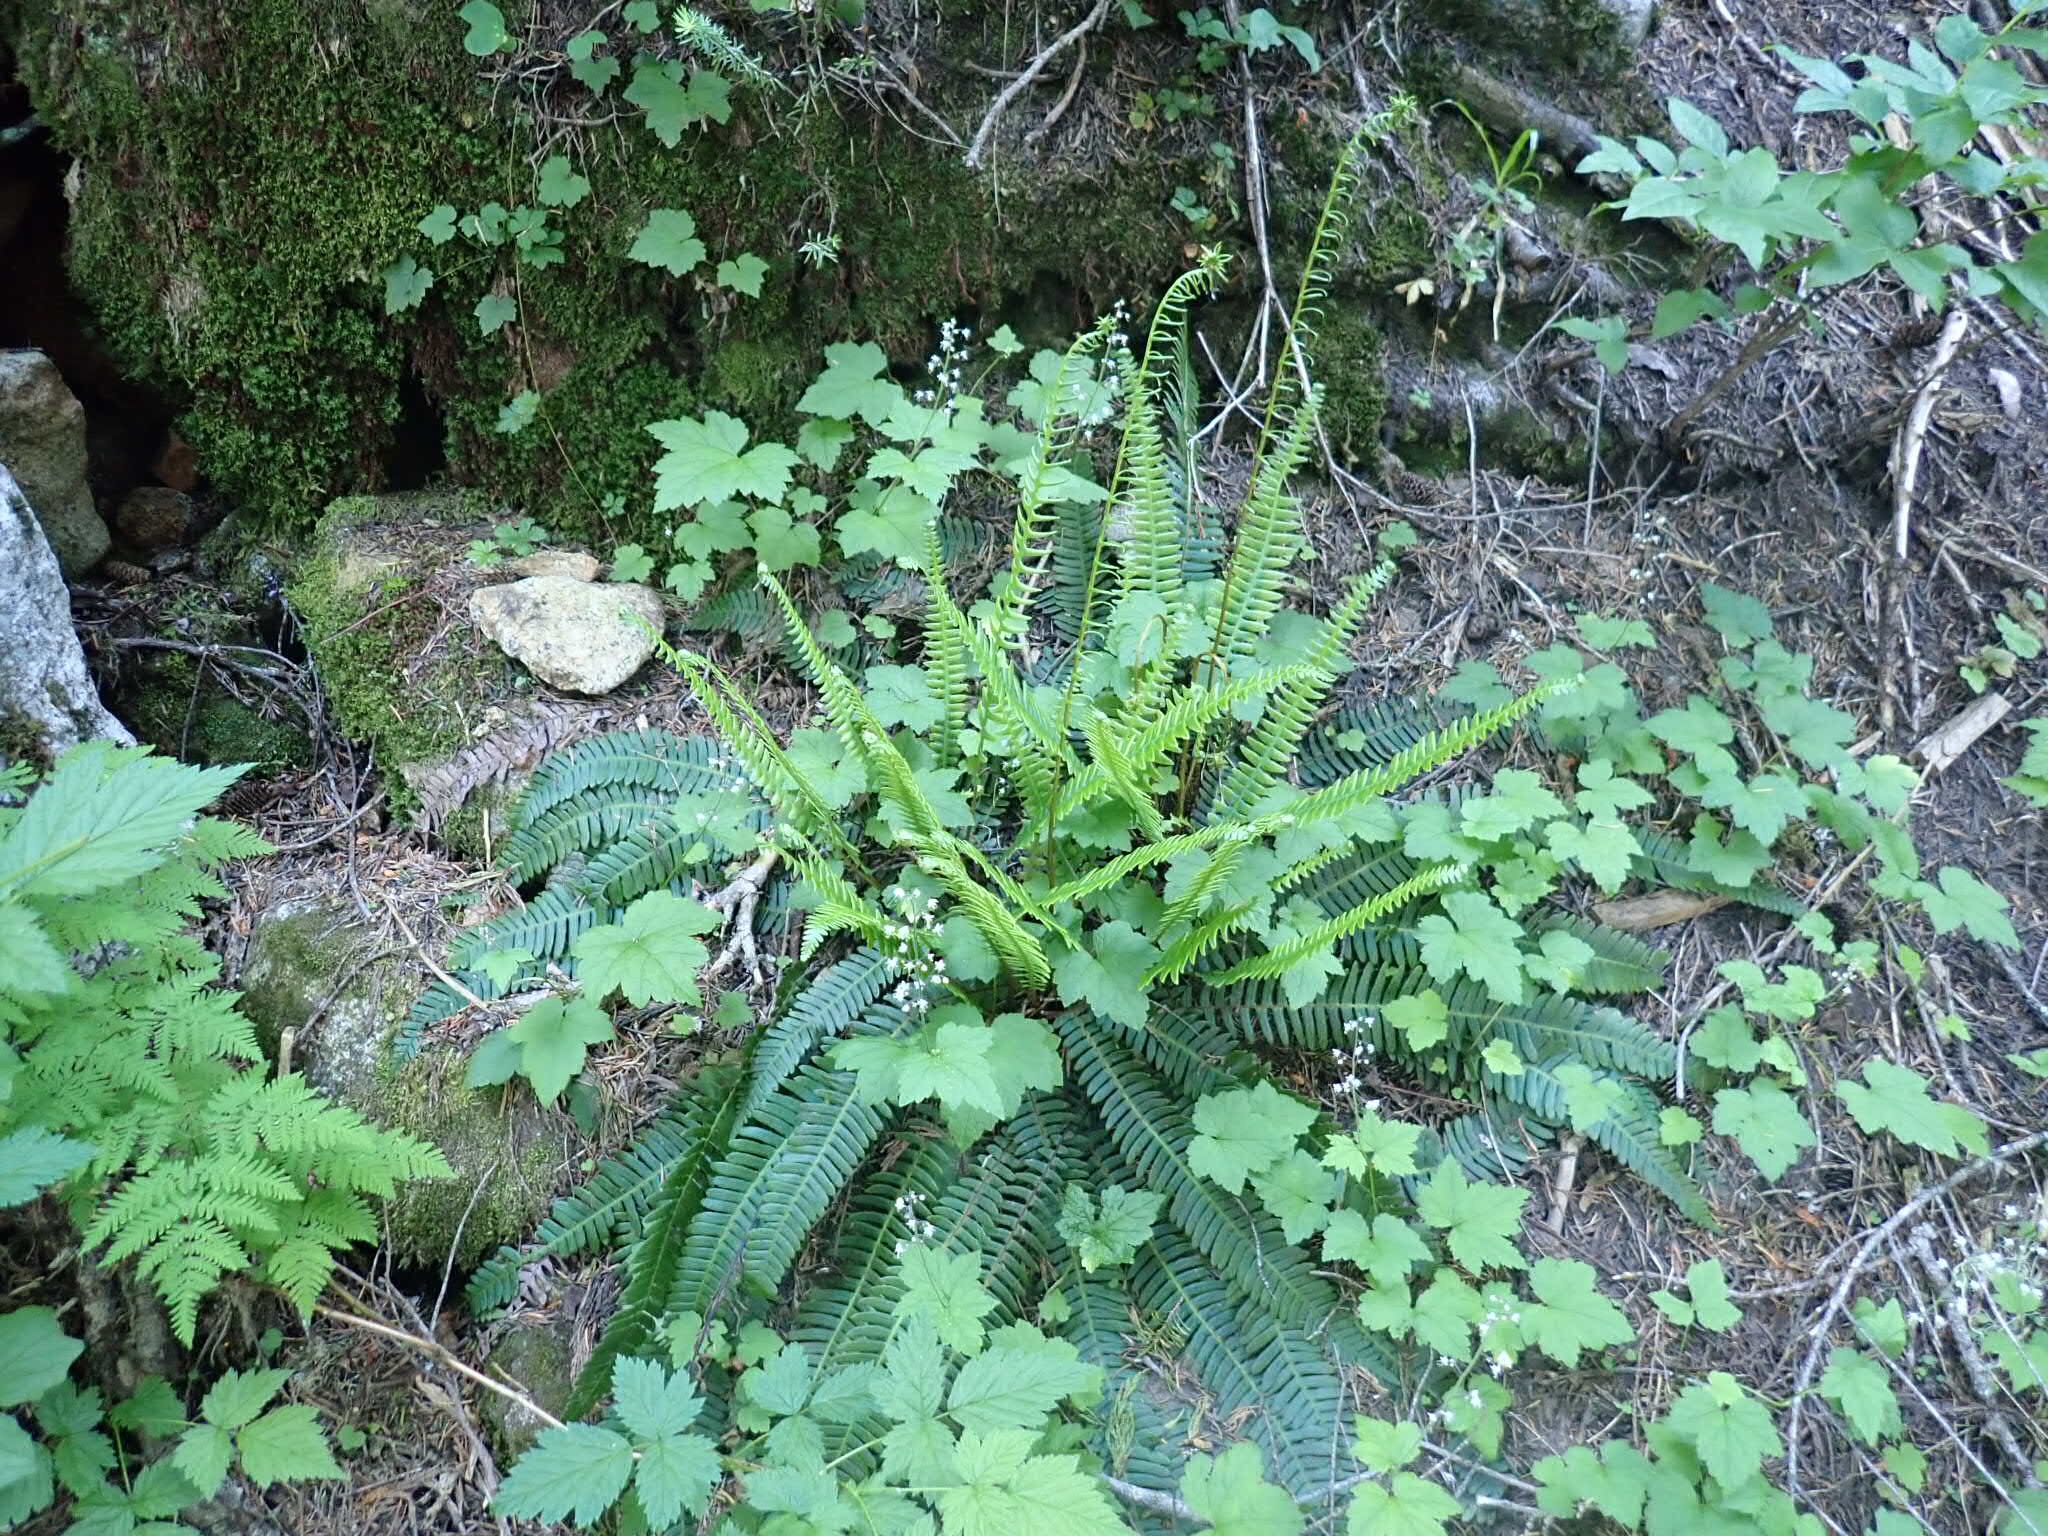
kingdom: Plantae
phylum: Tracheophyta
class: Polypodiopsida
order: Polypodiales
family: Blechnaceae
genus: Struthiopteris
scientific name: Struthiopteris spicant
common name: Deer fern
